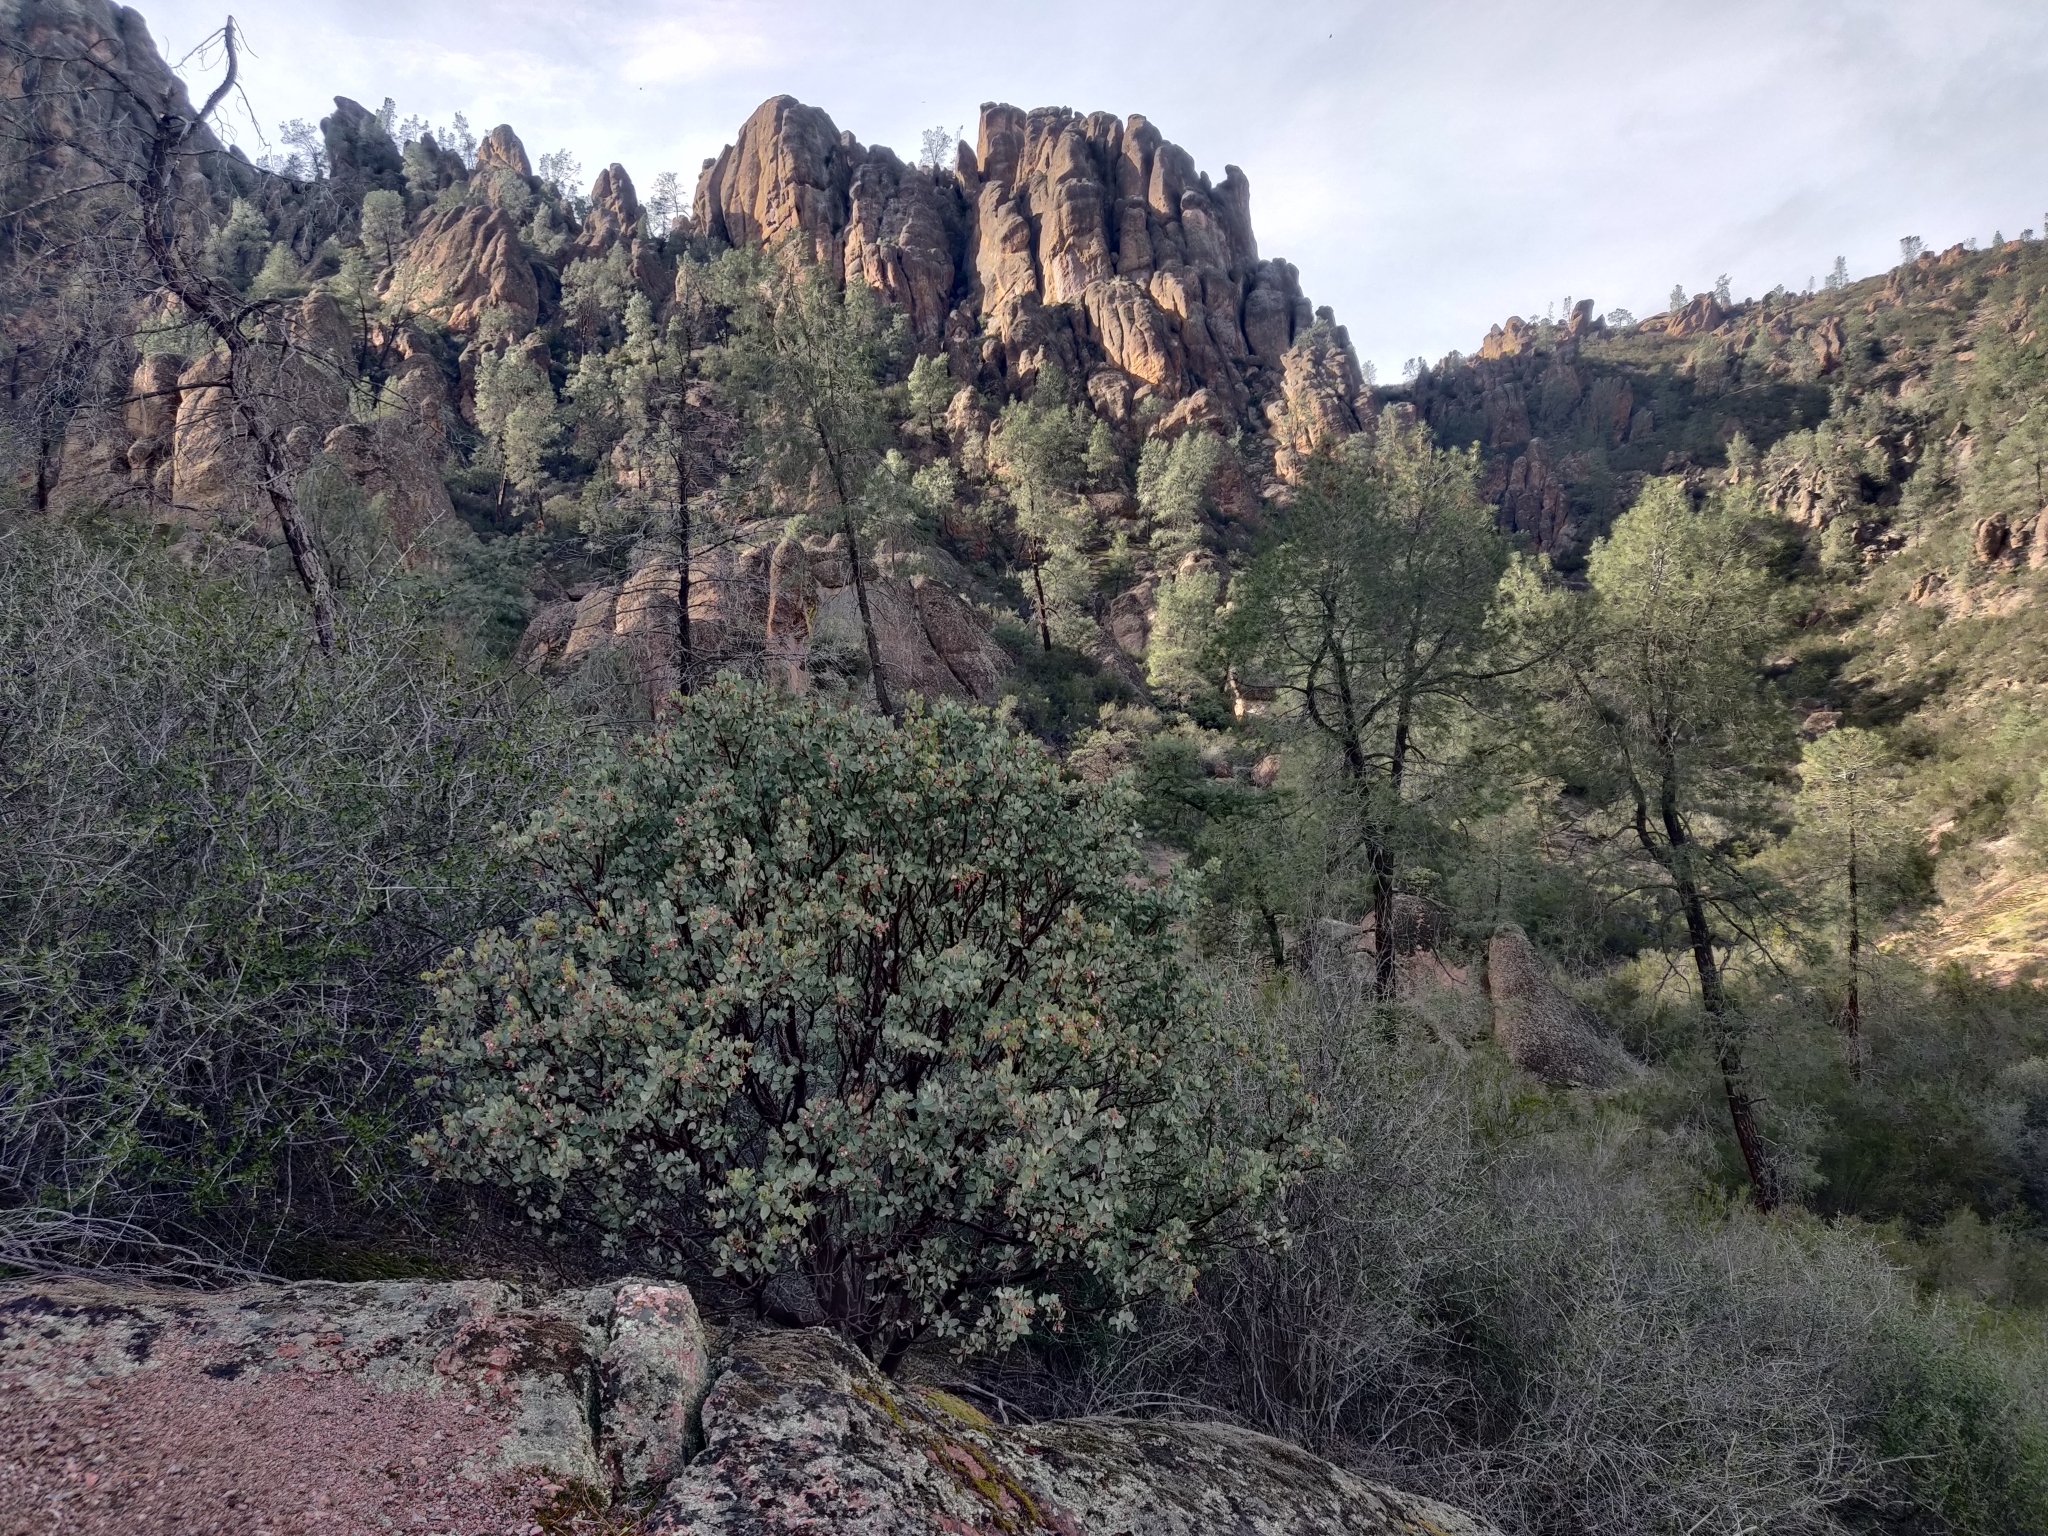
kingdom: Plantae
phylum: Tracheophyta
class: Magnoliopsida
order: Ericales
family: Ericaceae
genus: Arctostaphylos
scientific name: Arctostaphylos glauca
